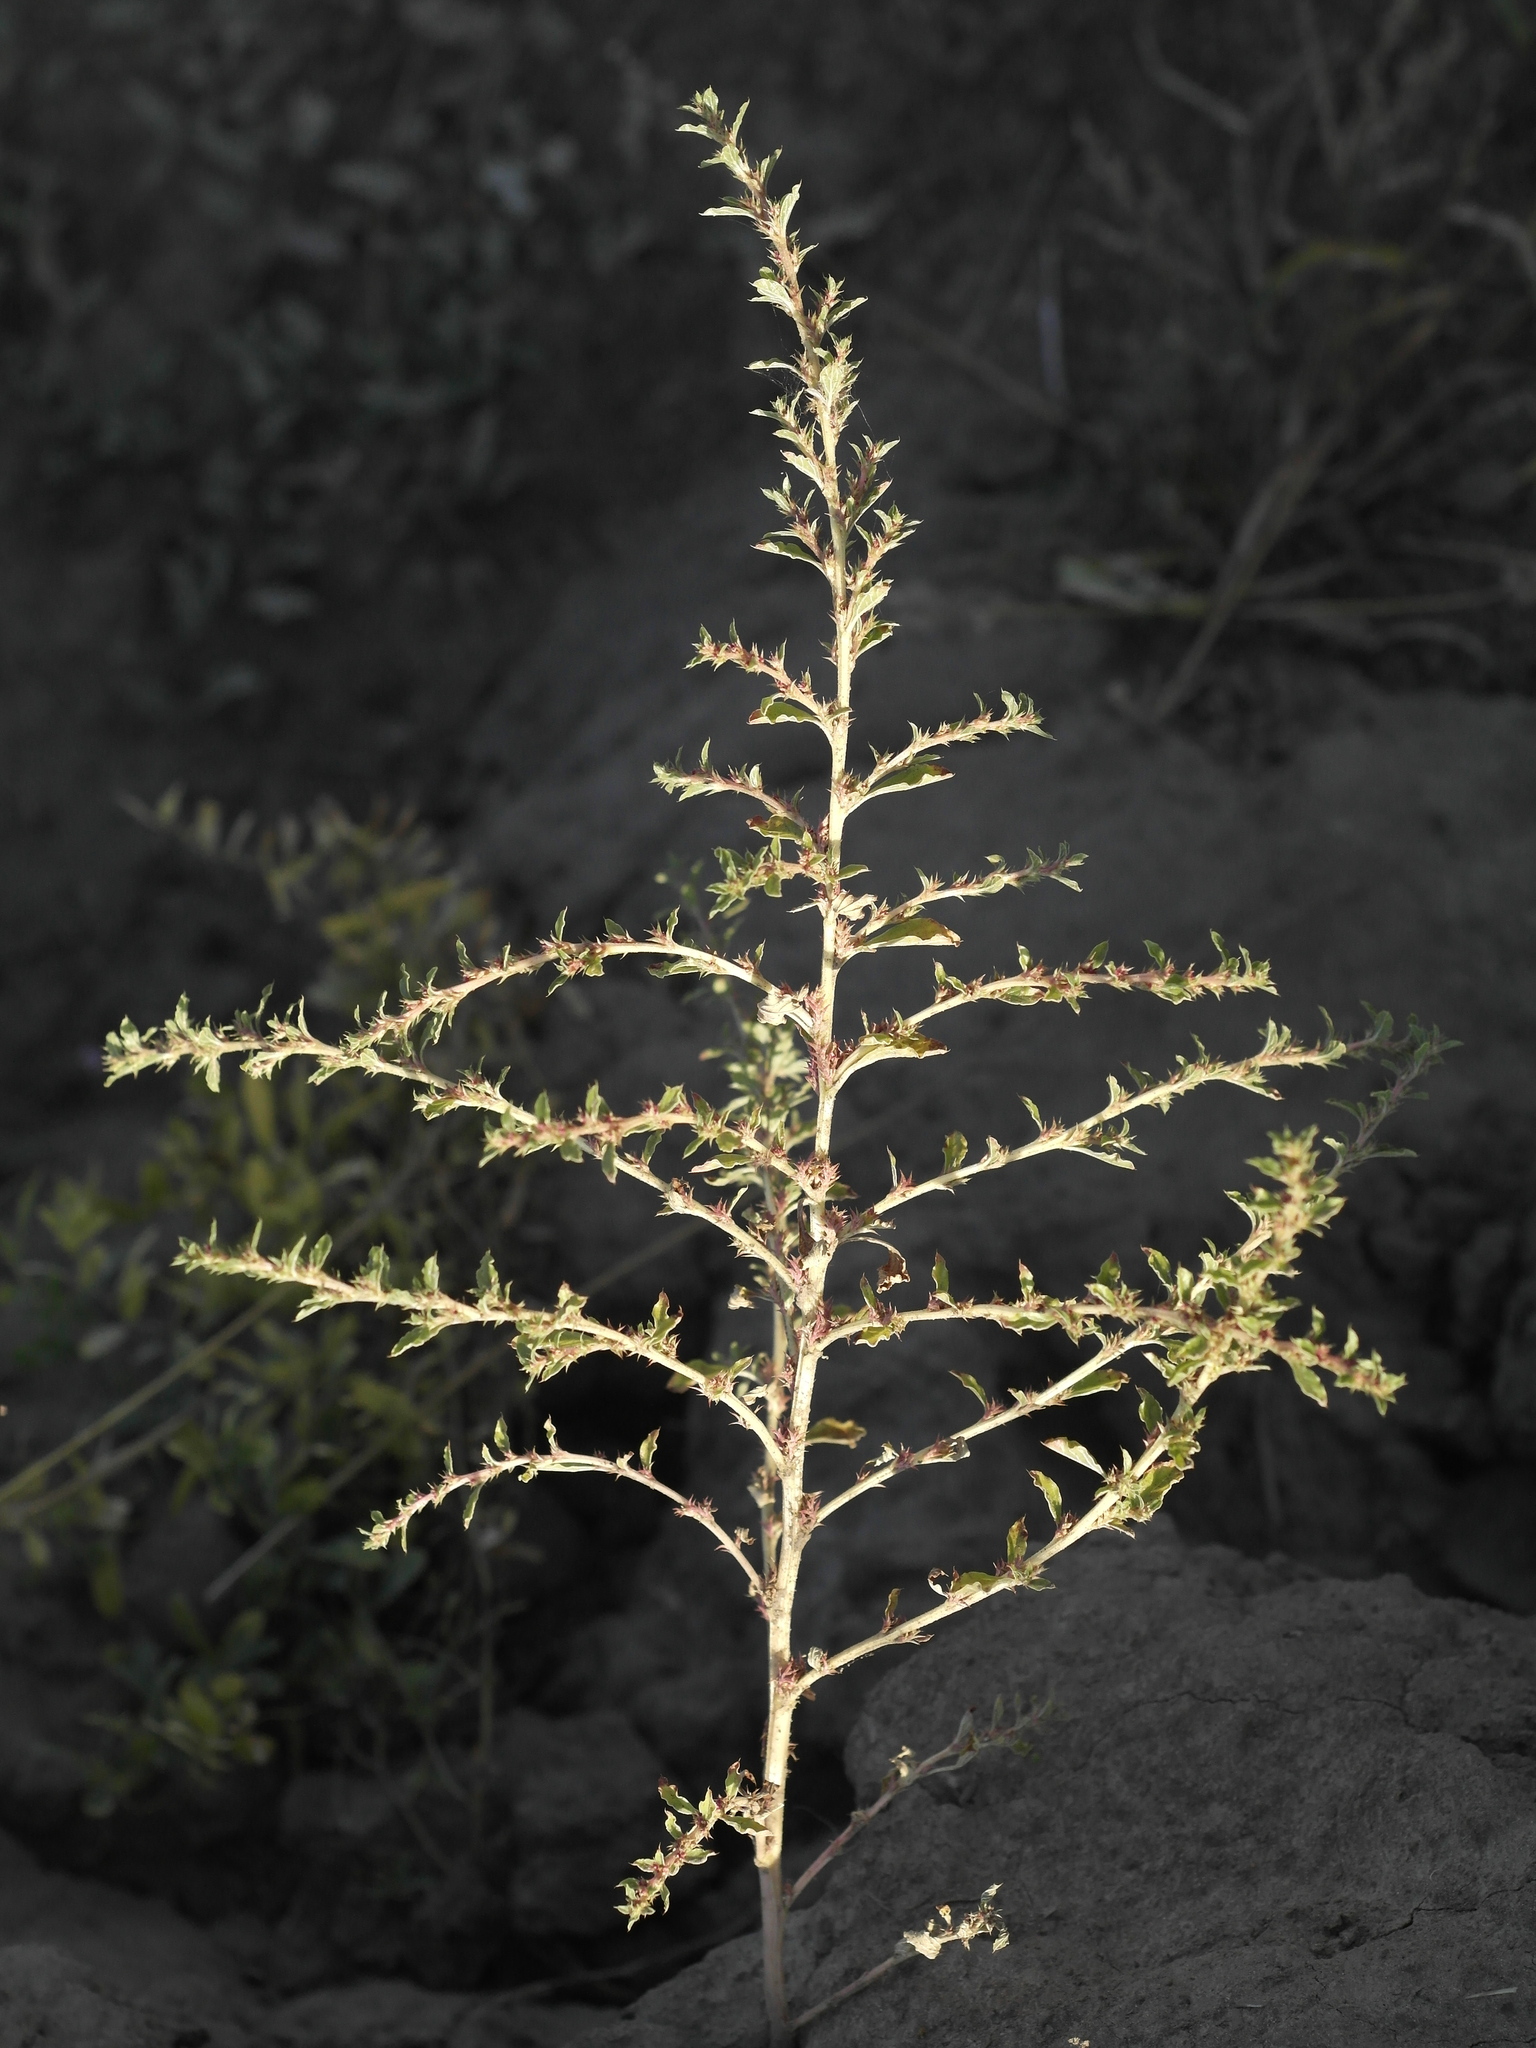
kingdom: Plantae
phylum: Tracheophyta
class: Magnoliopsida
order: Caryophyllales
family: Amaranthaceae
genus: Amaranthus
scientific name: Amaranthus albus
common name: White pigweed
